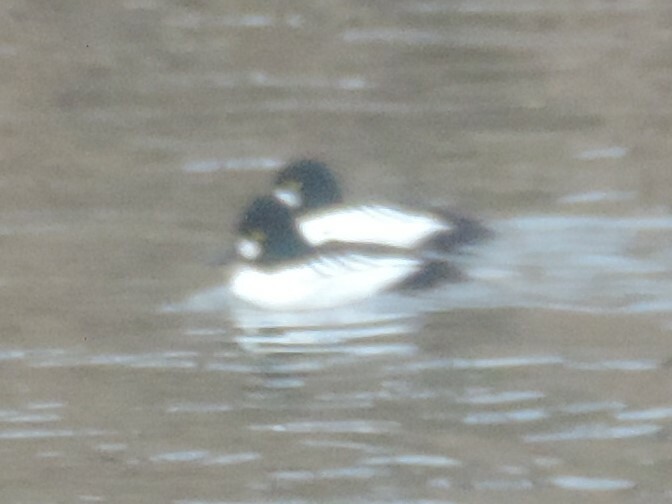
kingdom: Animalia
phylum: Chordata
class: Aves
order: Anseriformes
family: Anatidae
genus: Bucephala
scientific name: Bucephala clangula
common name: Common goldeneye
